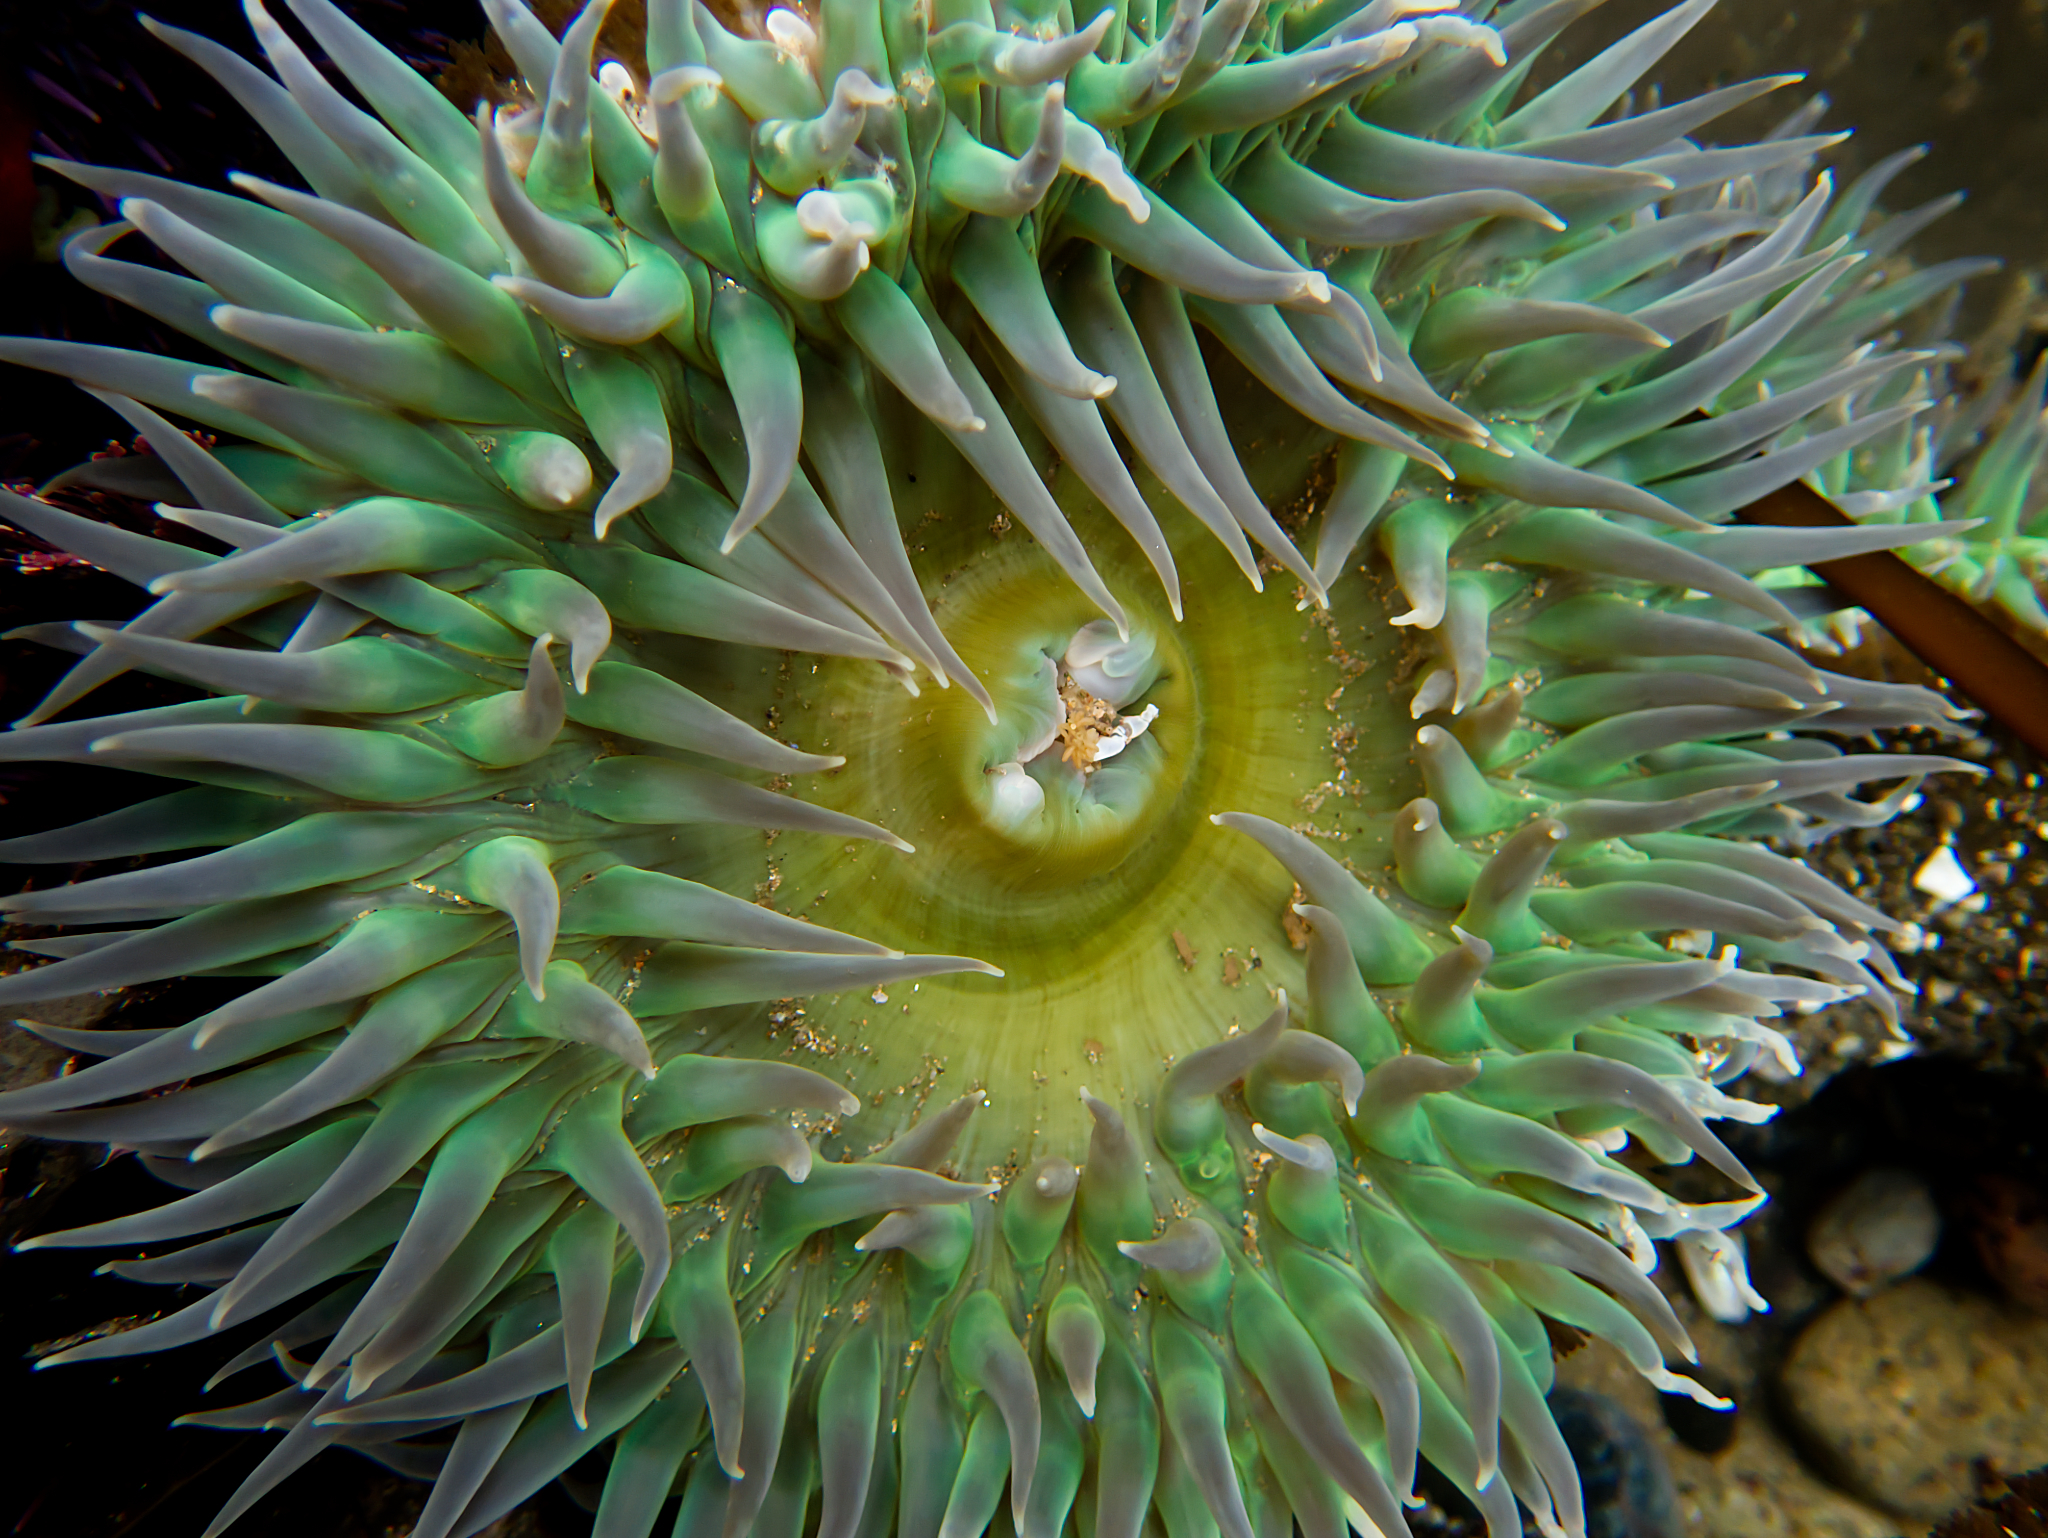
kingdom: Animalia
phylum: Cnidaria
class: Anthozoa
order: Actiniaria
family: Actiniidae
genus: Anthopleura
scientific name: Anthopleura xanthogrammica
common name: Giant green anemone
